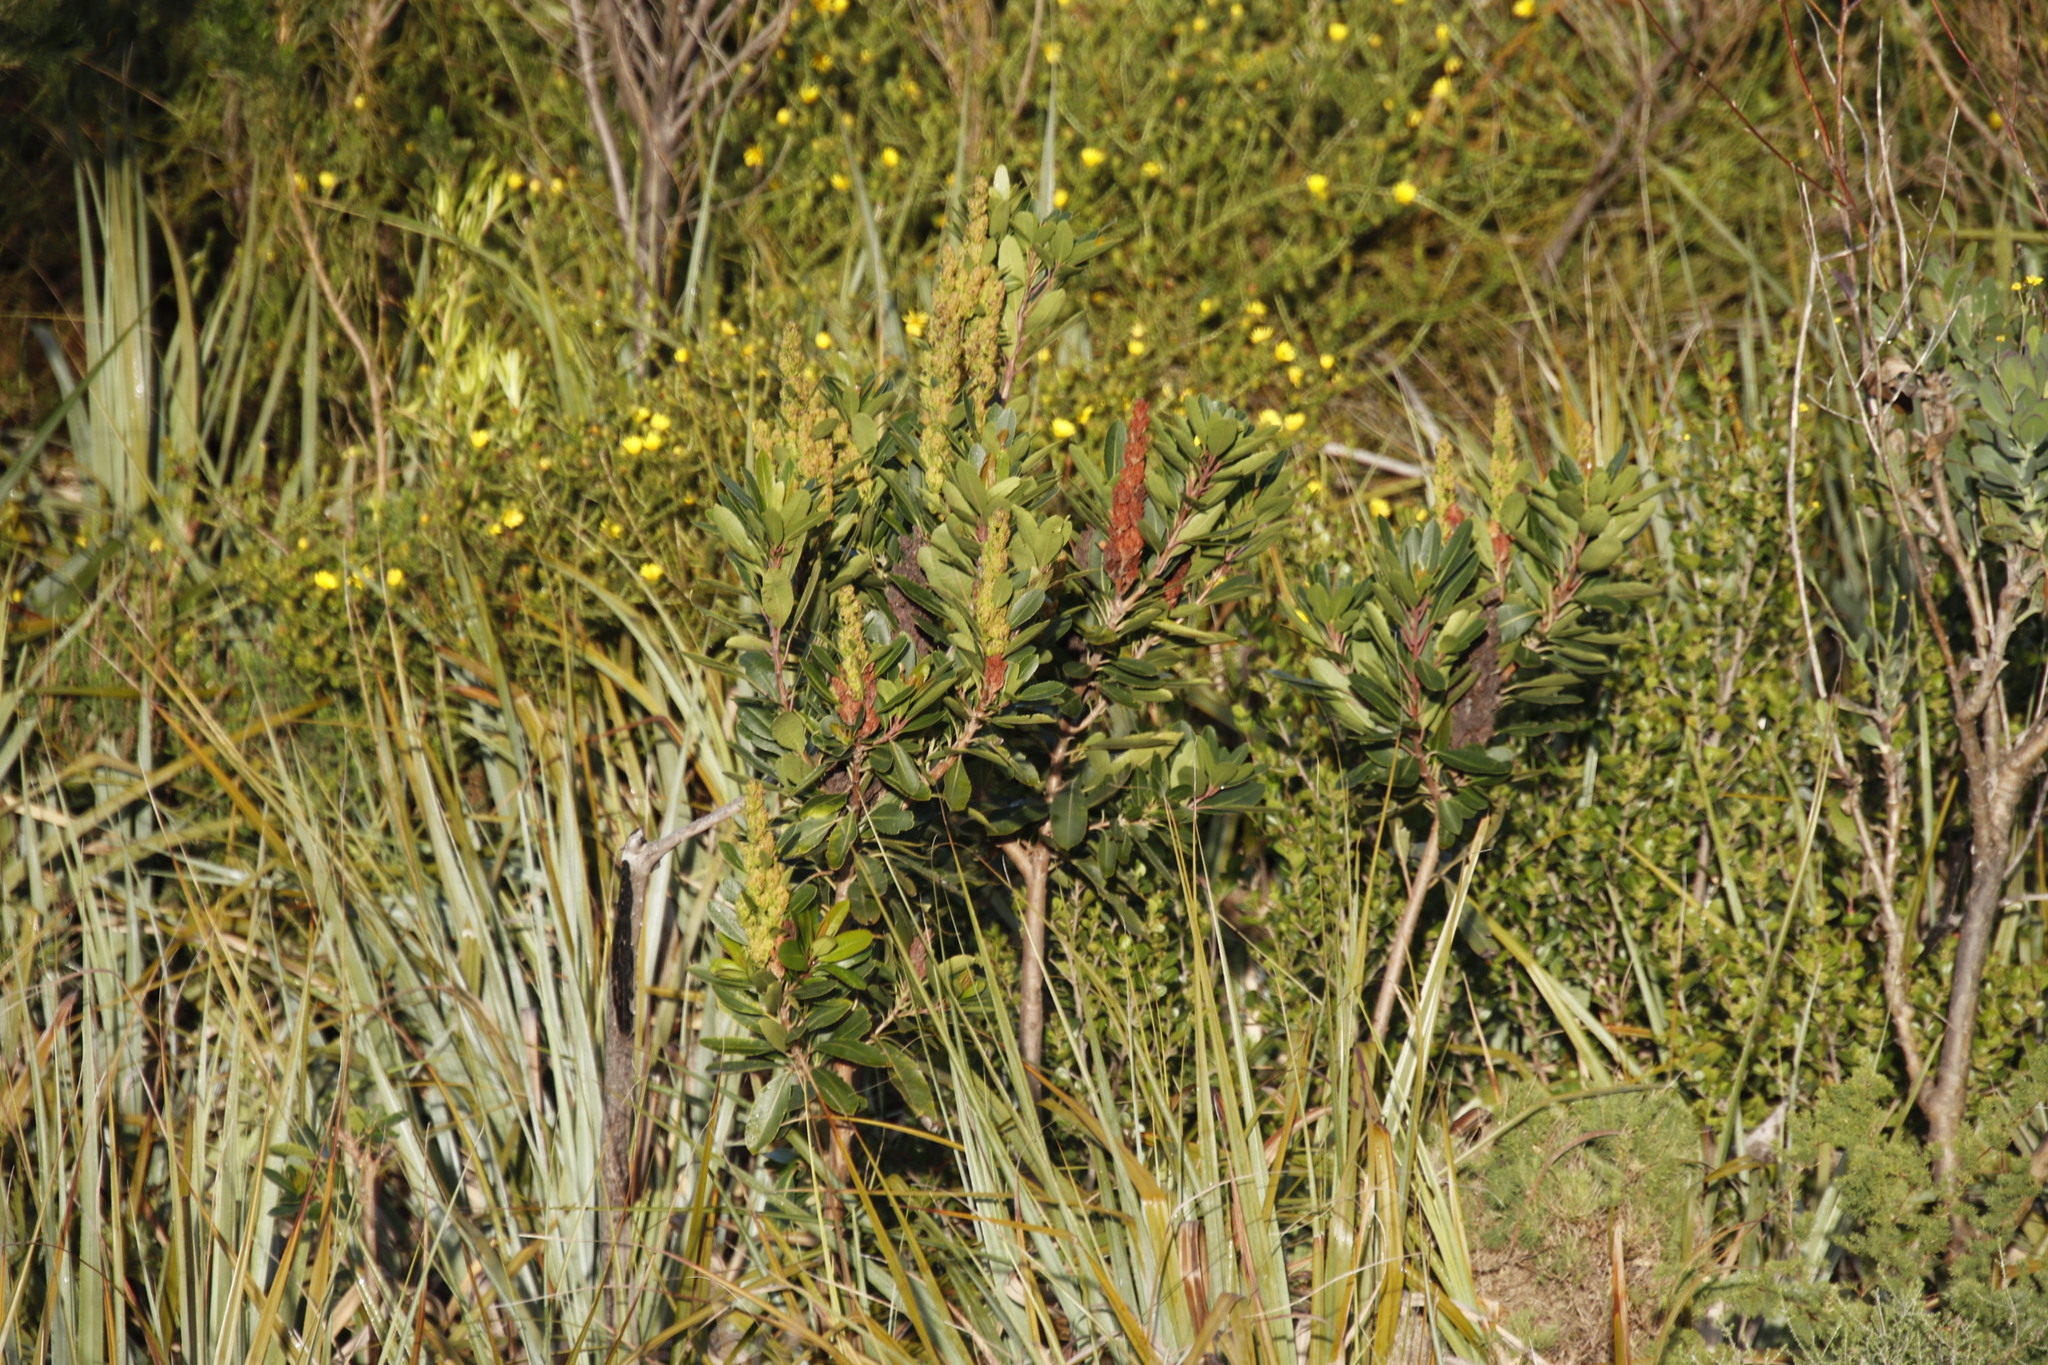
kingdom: Plantae
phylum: Tracheophyta
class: Magnoliopsida
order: Sapindales
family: Anacardiaceae
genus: Laurophyllus
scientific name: Laurophyllus capensis
